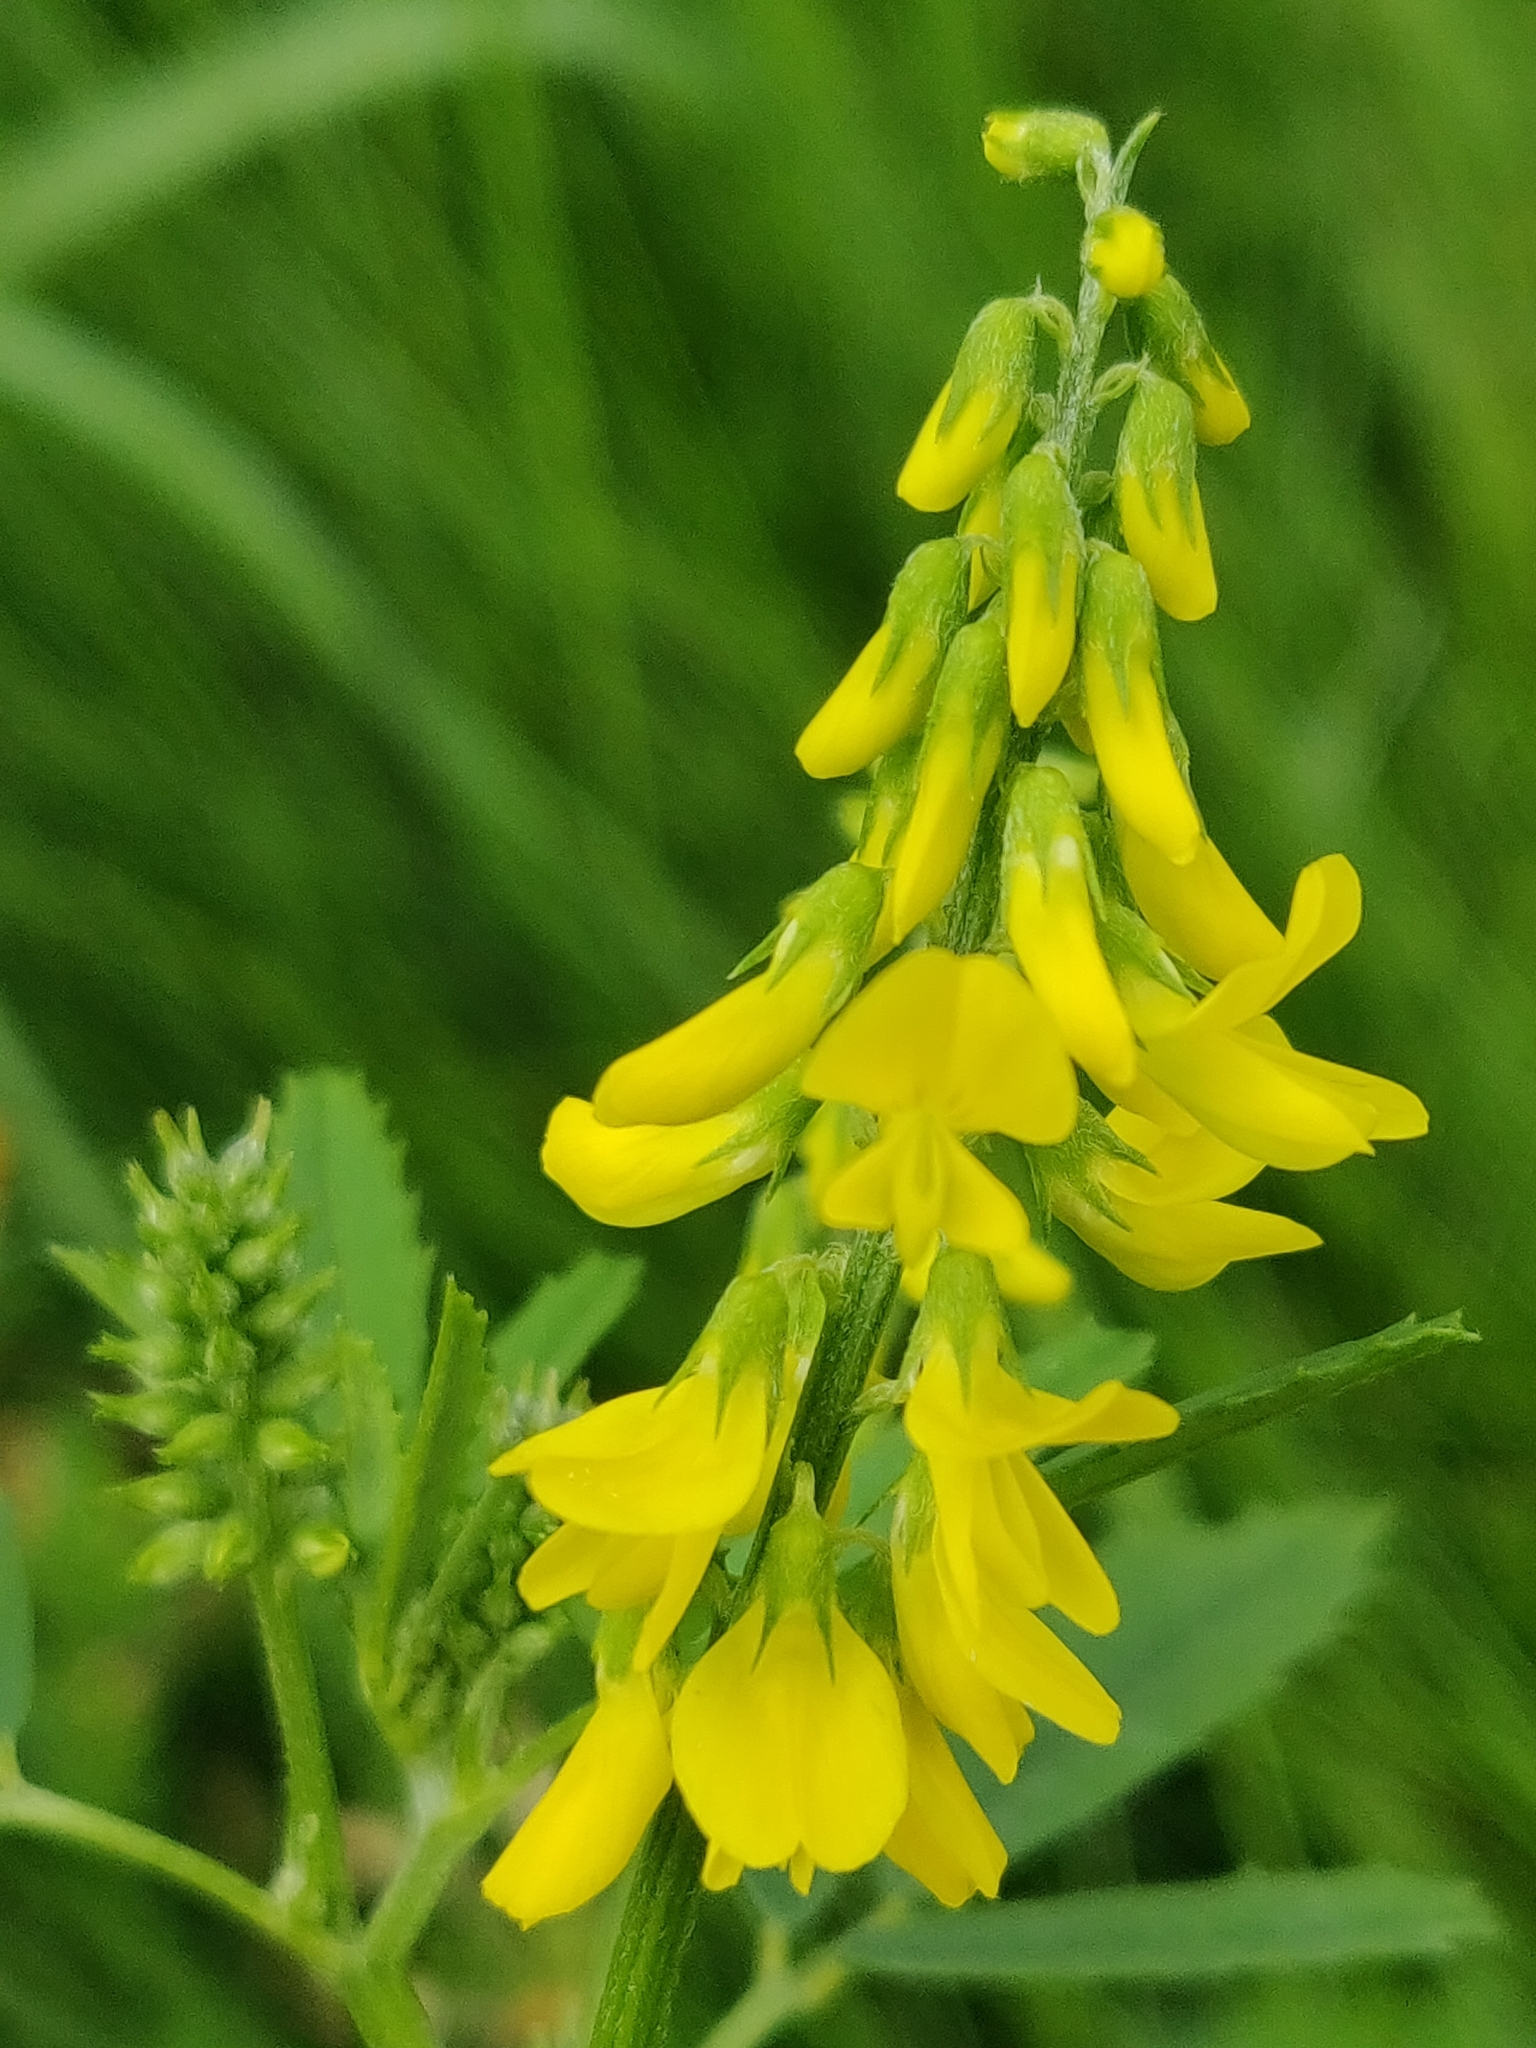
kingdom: Plantae
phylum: Tracheophyta
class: Magnoliopsida
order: Fabales
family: Fabaceae
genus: Melilotus
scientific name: Melilotus officinalis
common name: Sweetclover
